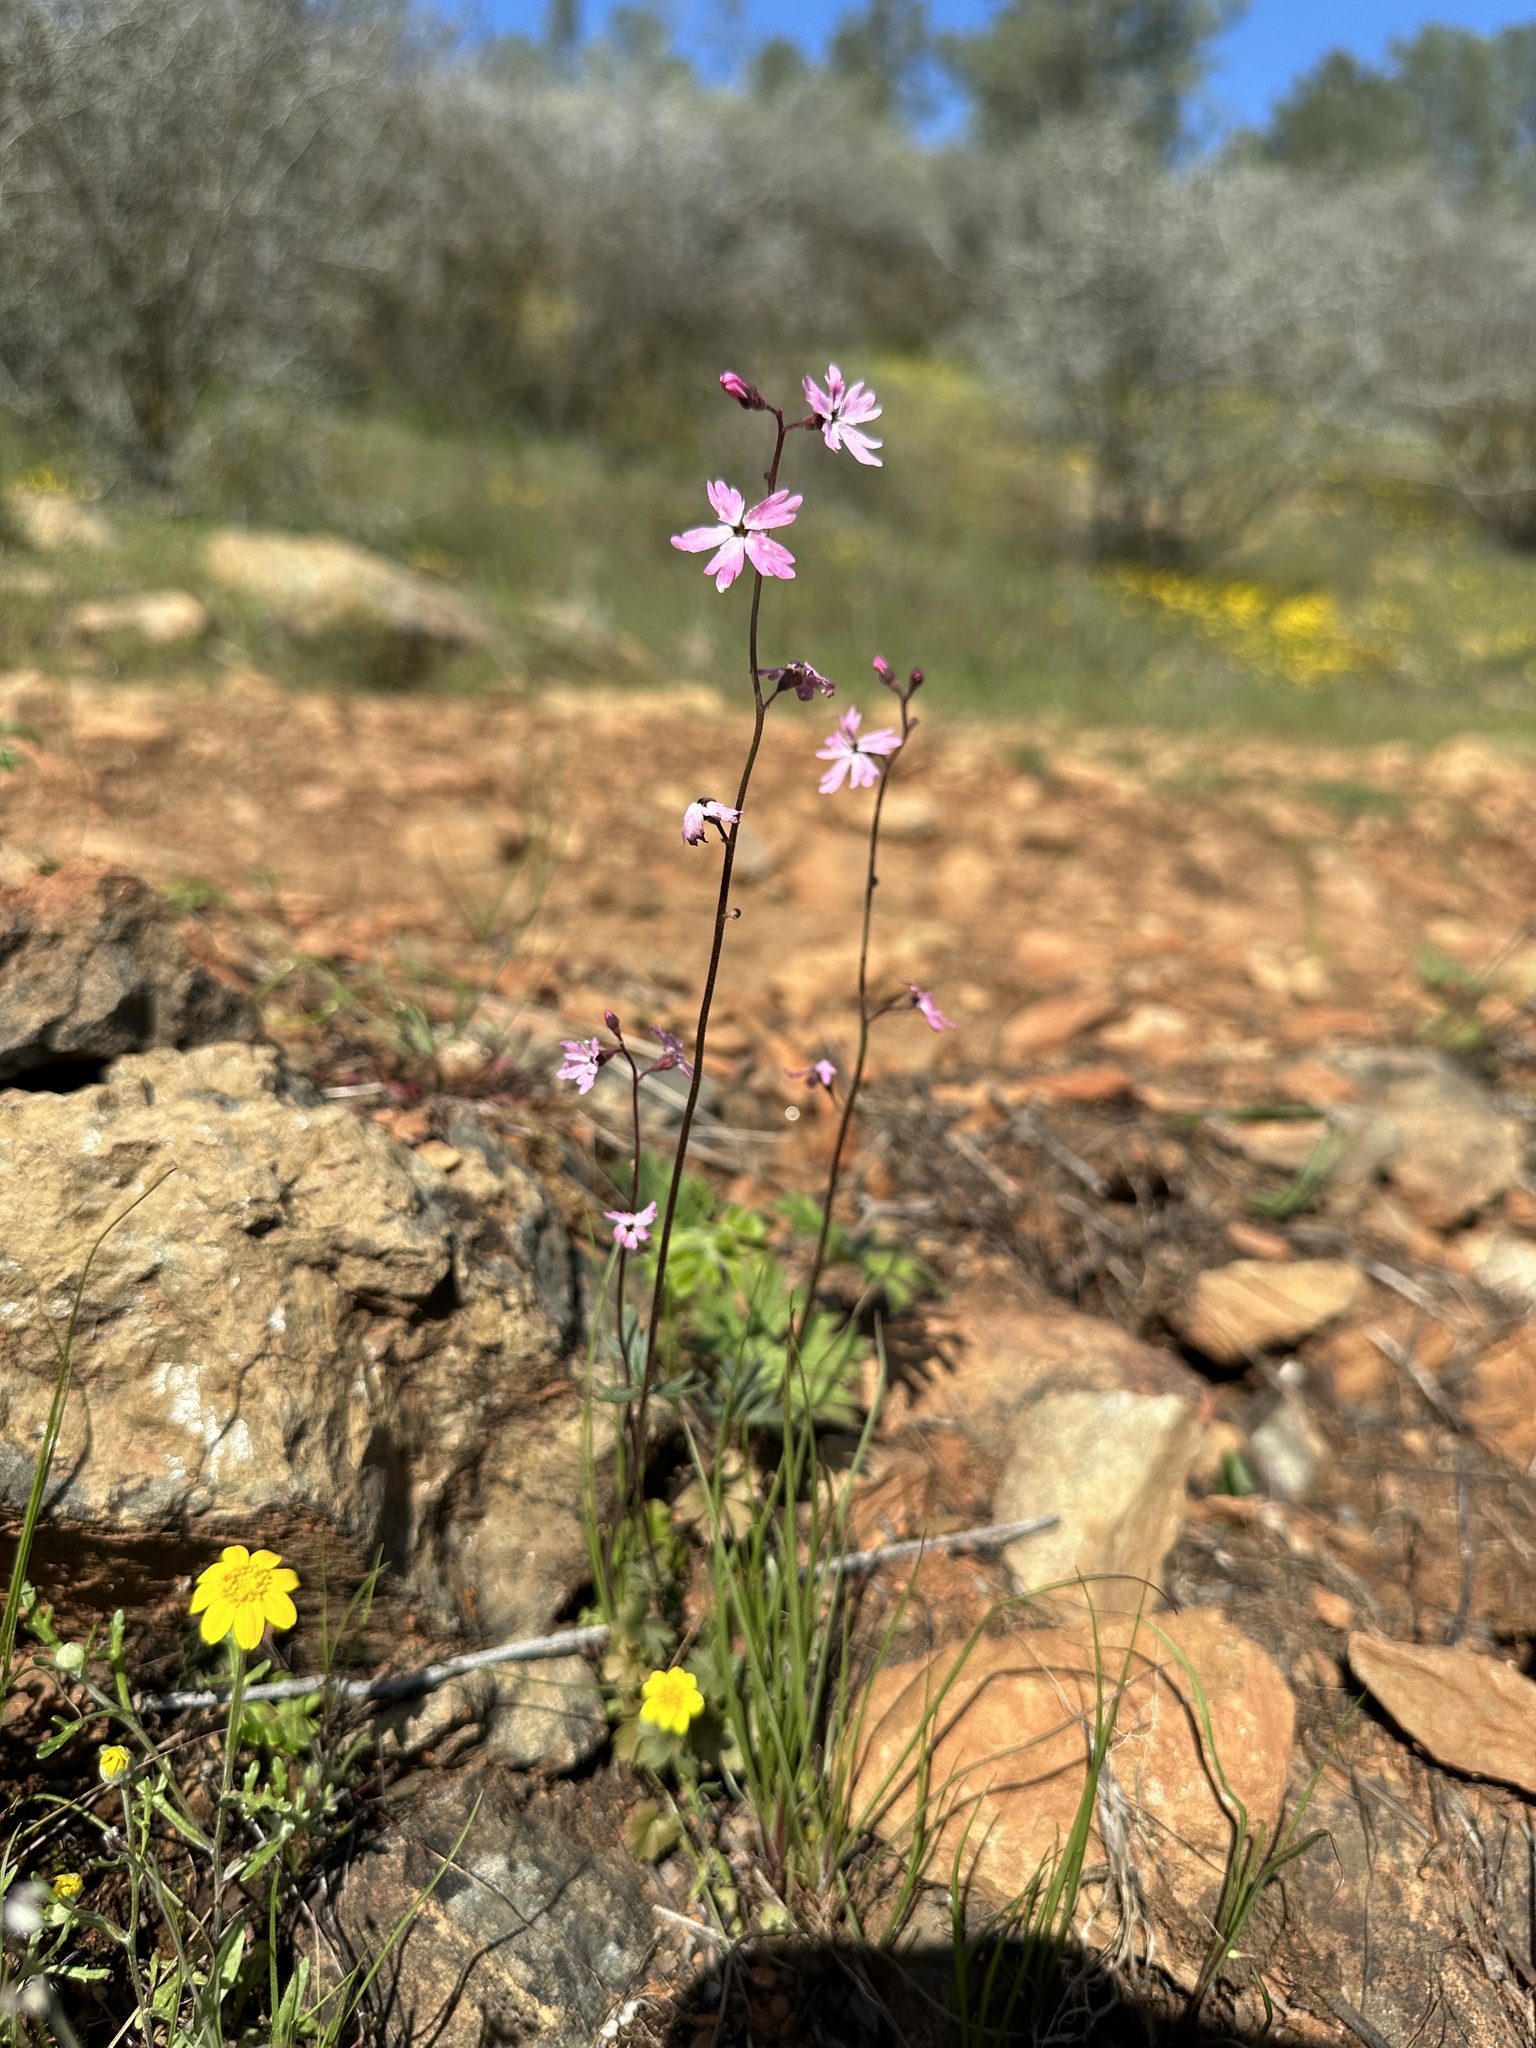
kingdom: Plantae
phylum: Tracheophyta
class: Magnoliopsida
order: Saxifragales
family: Saxifragaceae
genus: Lithophragma
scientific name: Lithophragma parviflorum
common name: Small-flowered fringe-cup
